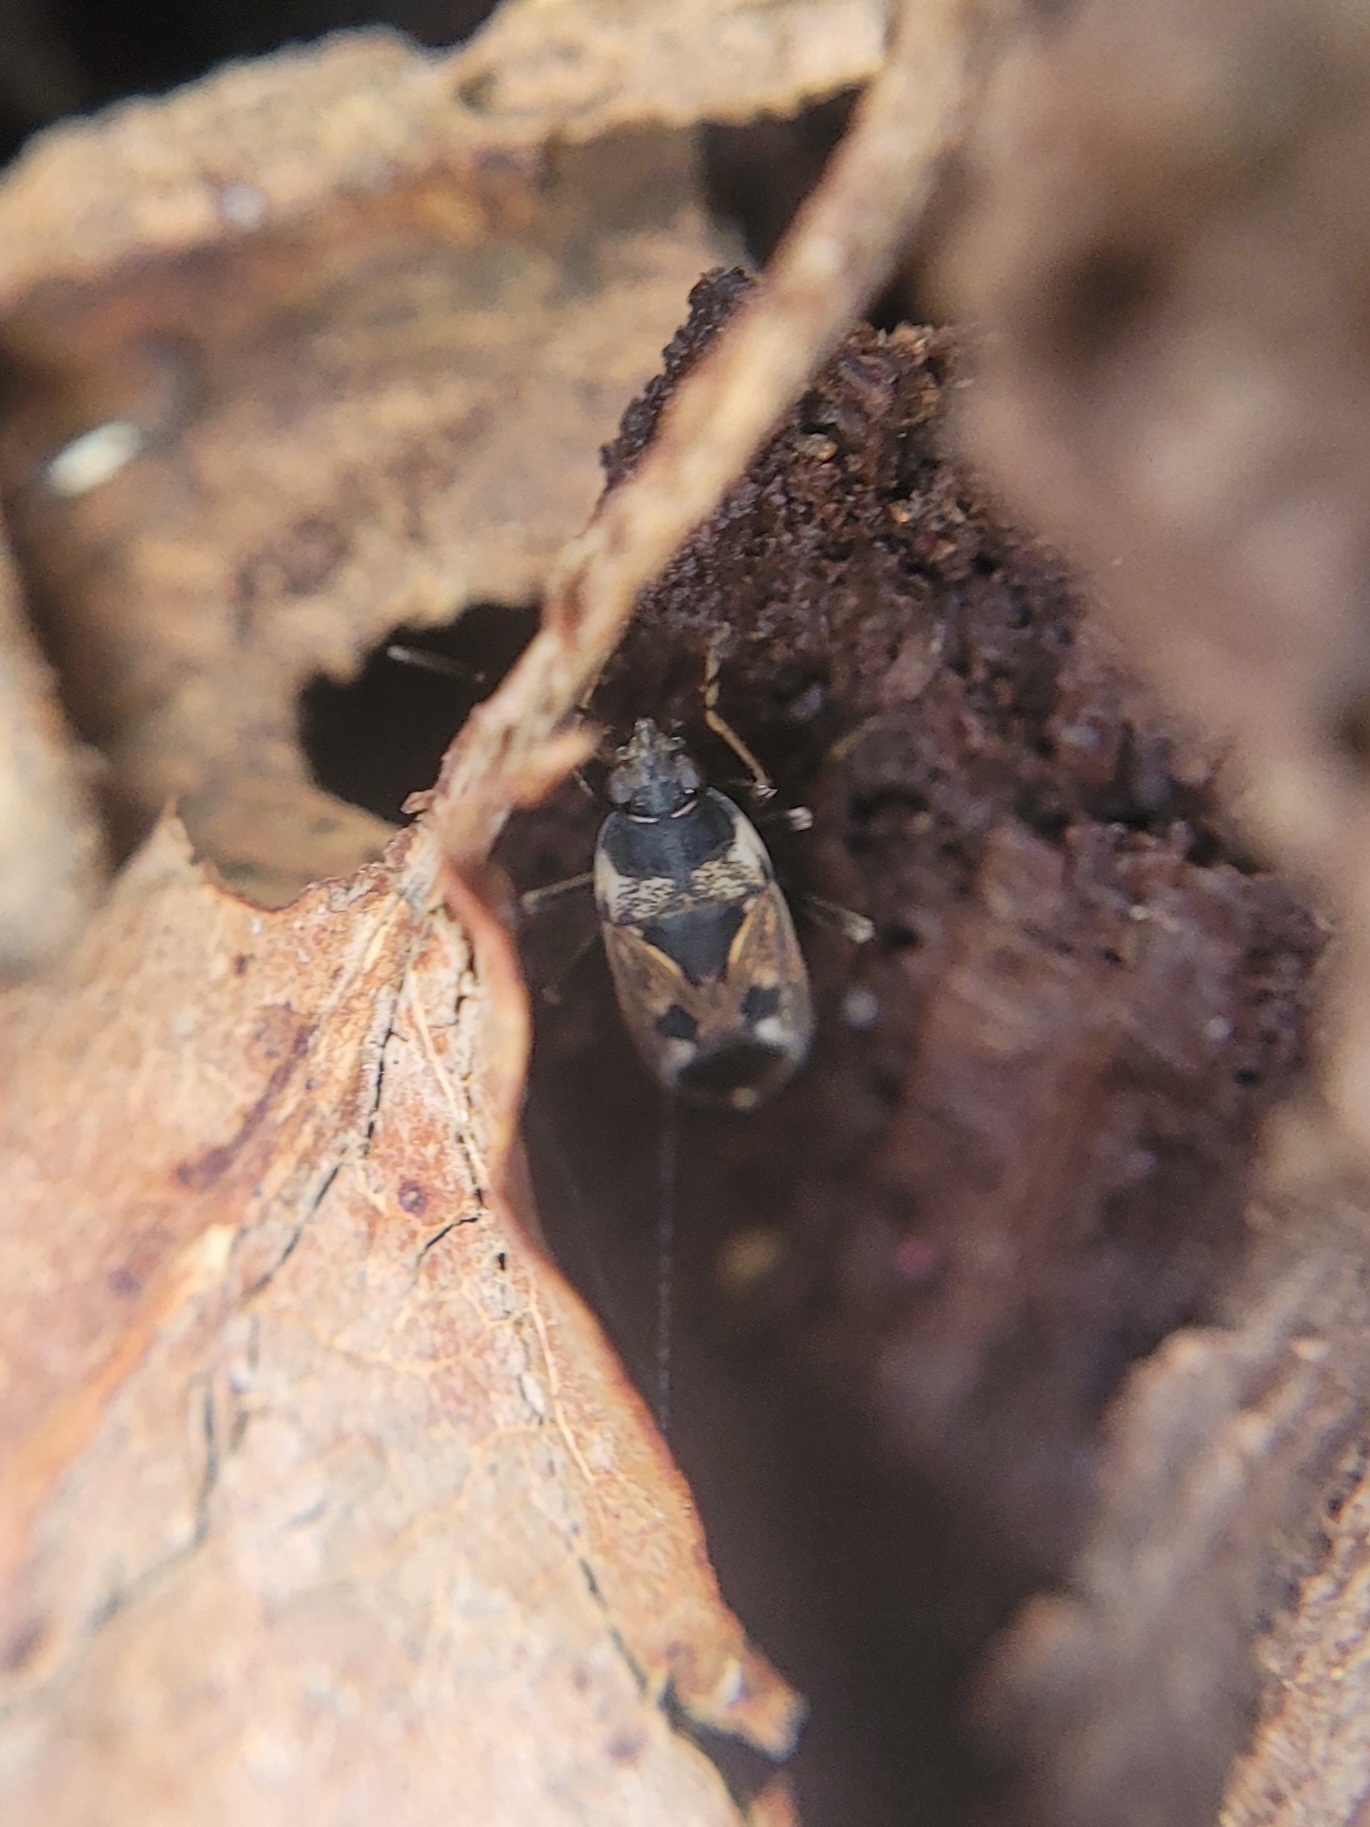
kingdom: Animalia
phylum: Arthropoda
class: Insecta
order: Hemiptera
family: Rhyparochromidae
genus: Rhyparochromus
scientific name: Rhyparochromus vulgaris
